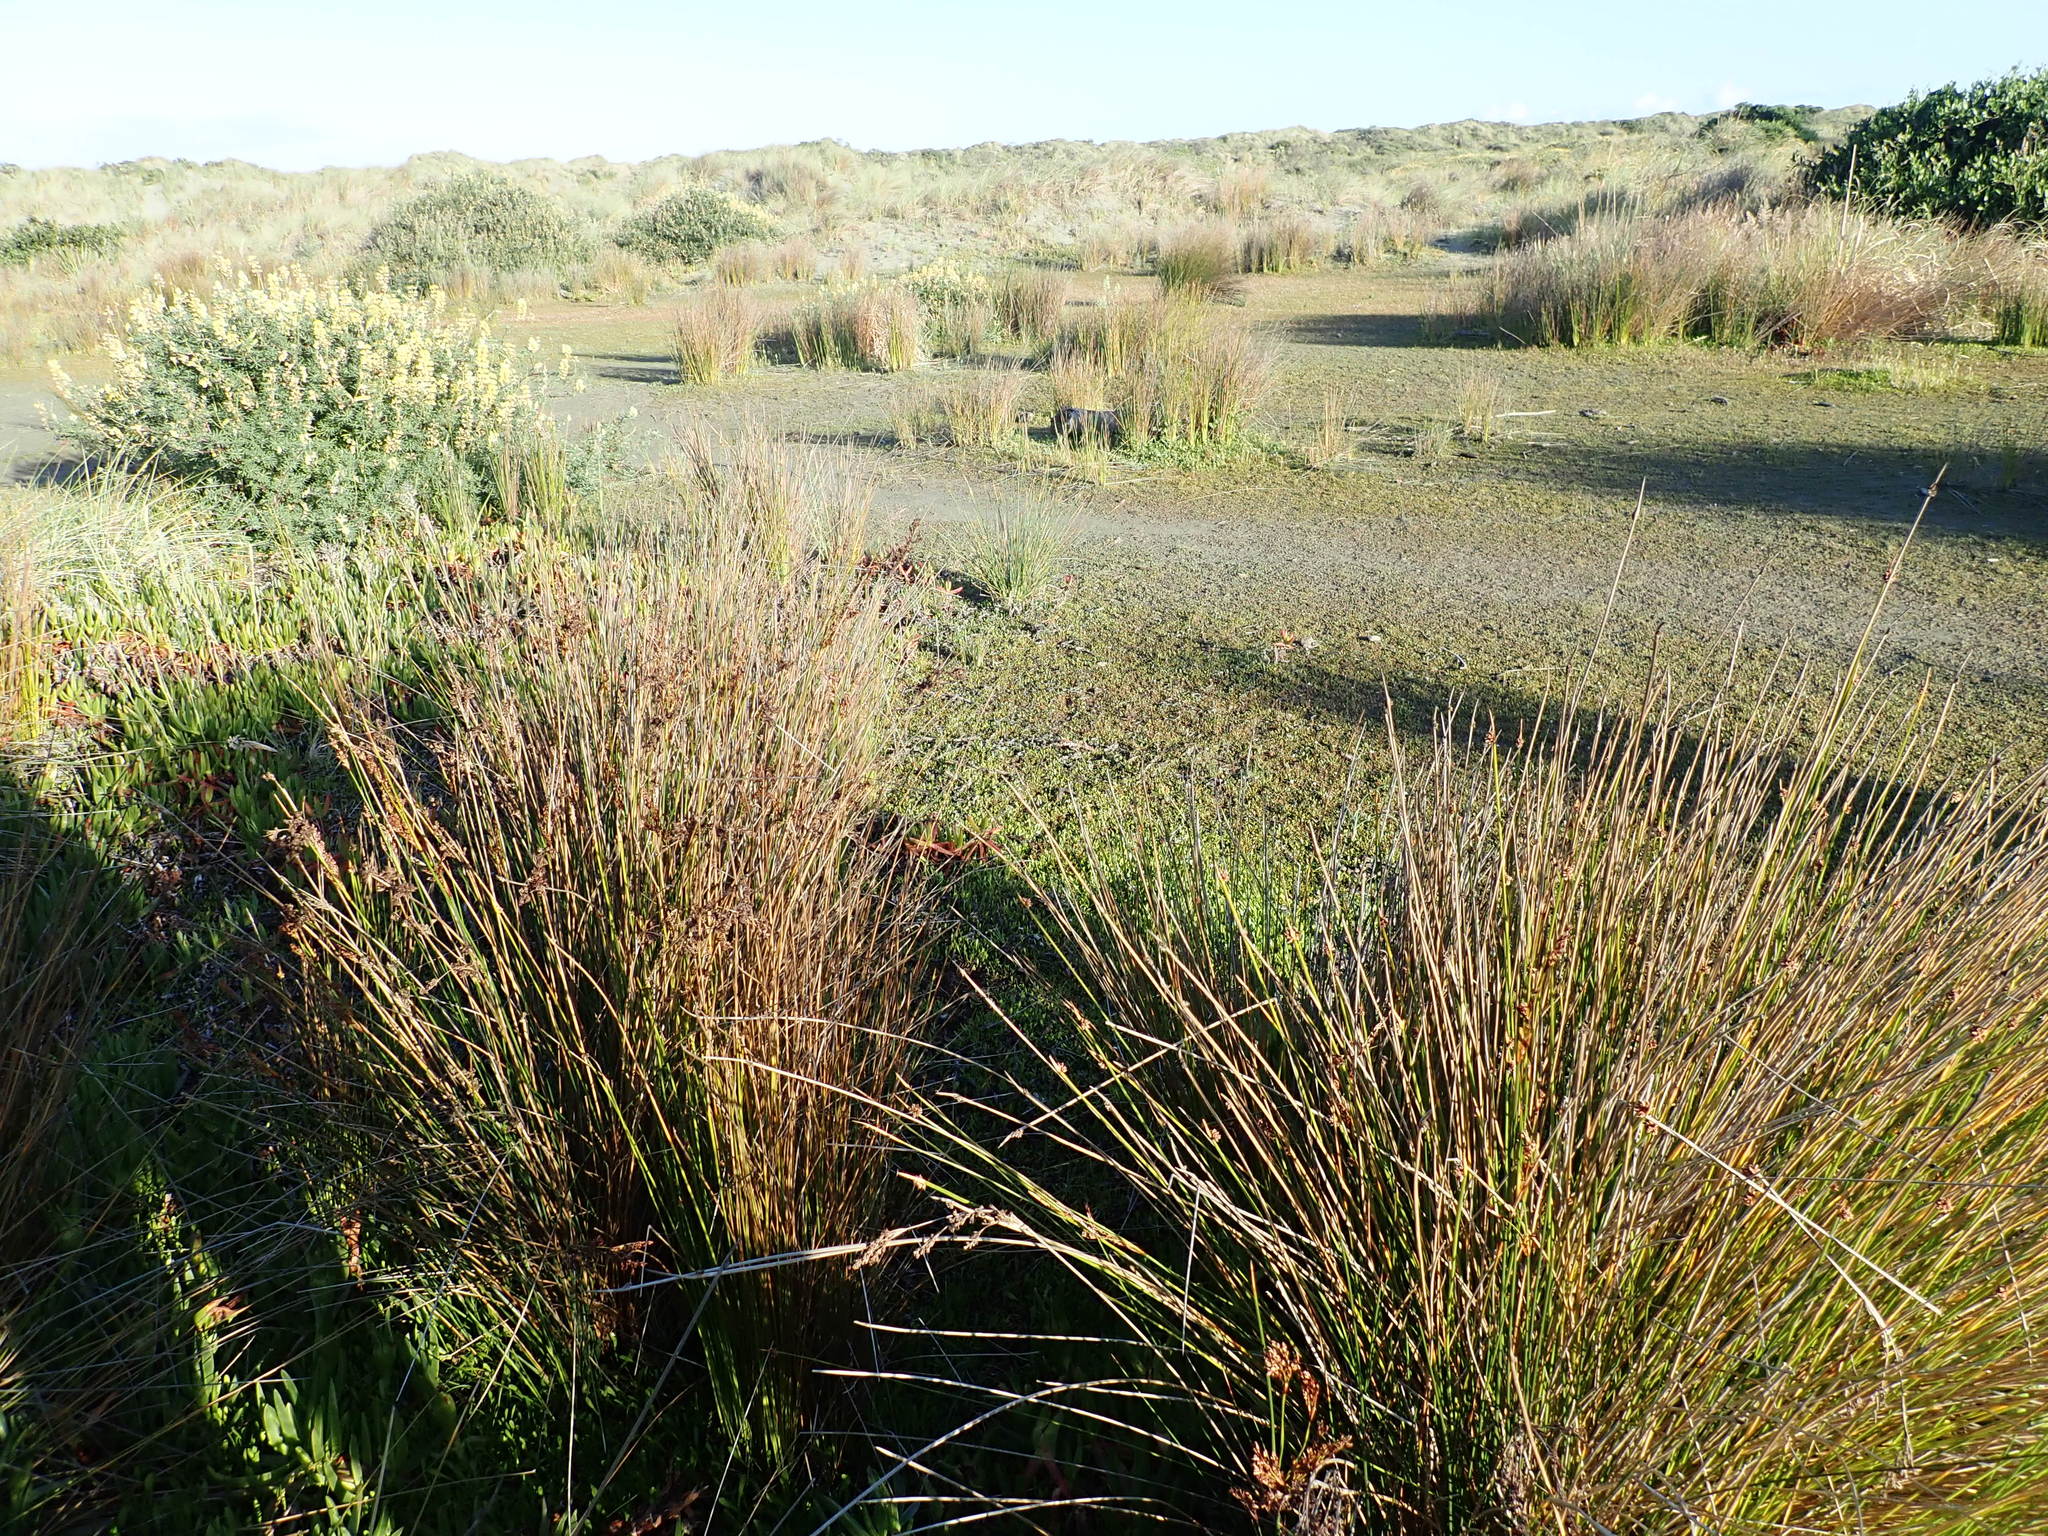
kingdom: Plantae
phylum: Tracheophyta
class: Liliopsida
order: Poales
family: Juncaceae
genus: Juncus
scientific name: Juncus kraussii
